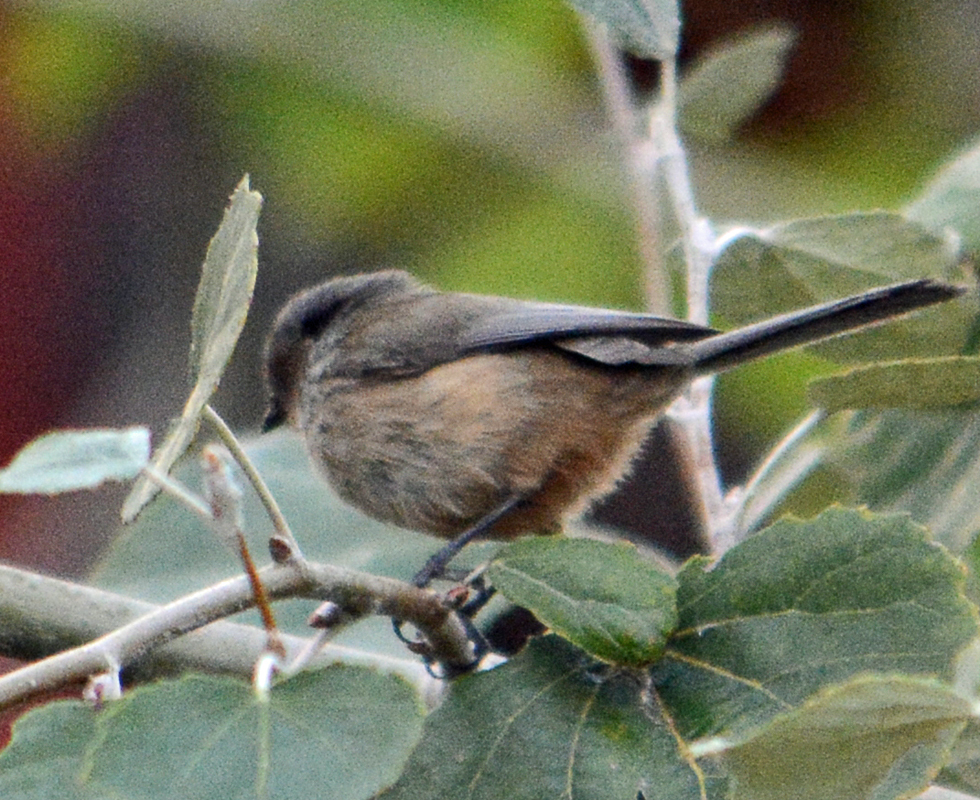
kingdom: Animalia
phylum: Chordata
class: Aves
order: Passeriformes
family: Aegithalidae
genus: Psaltriparus
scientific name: Psaltriparus minimus
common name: American bushtit
